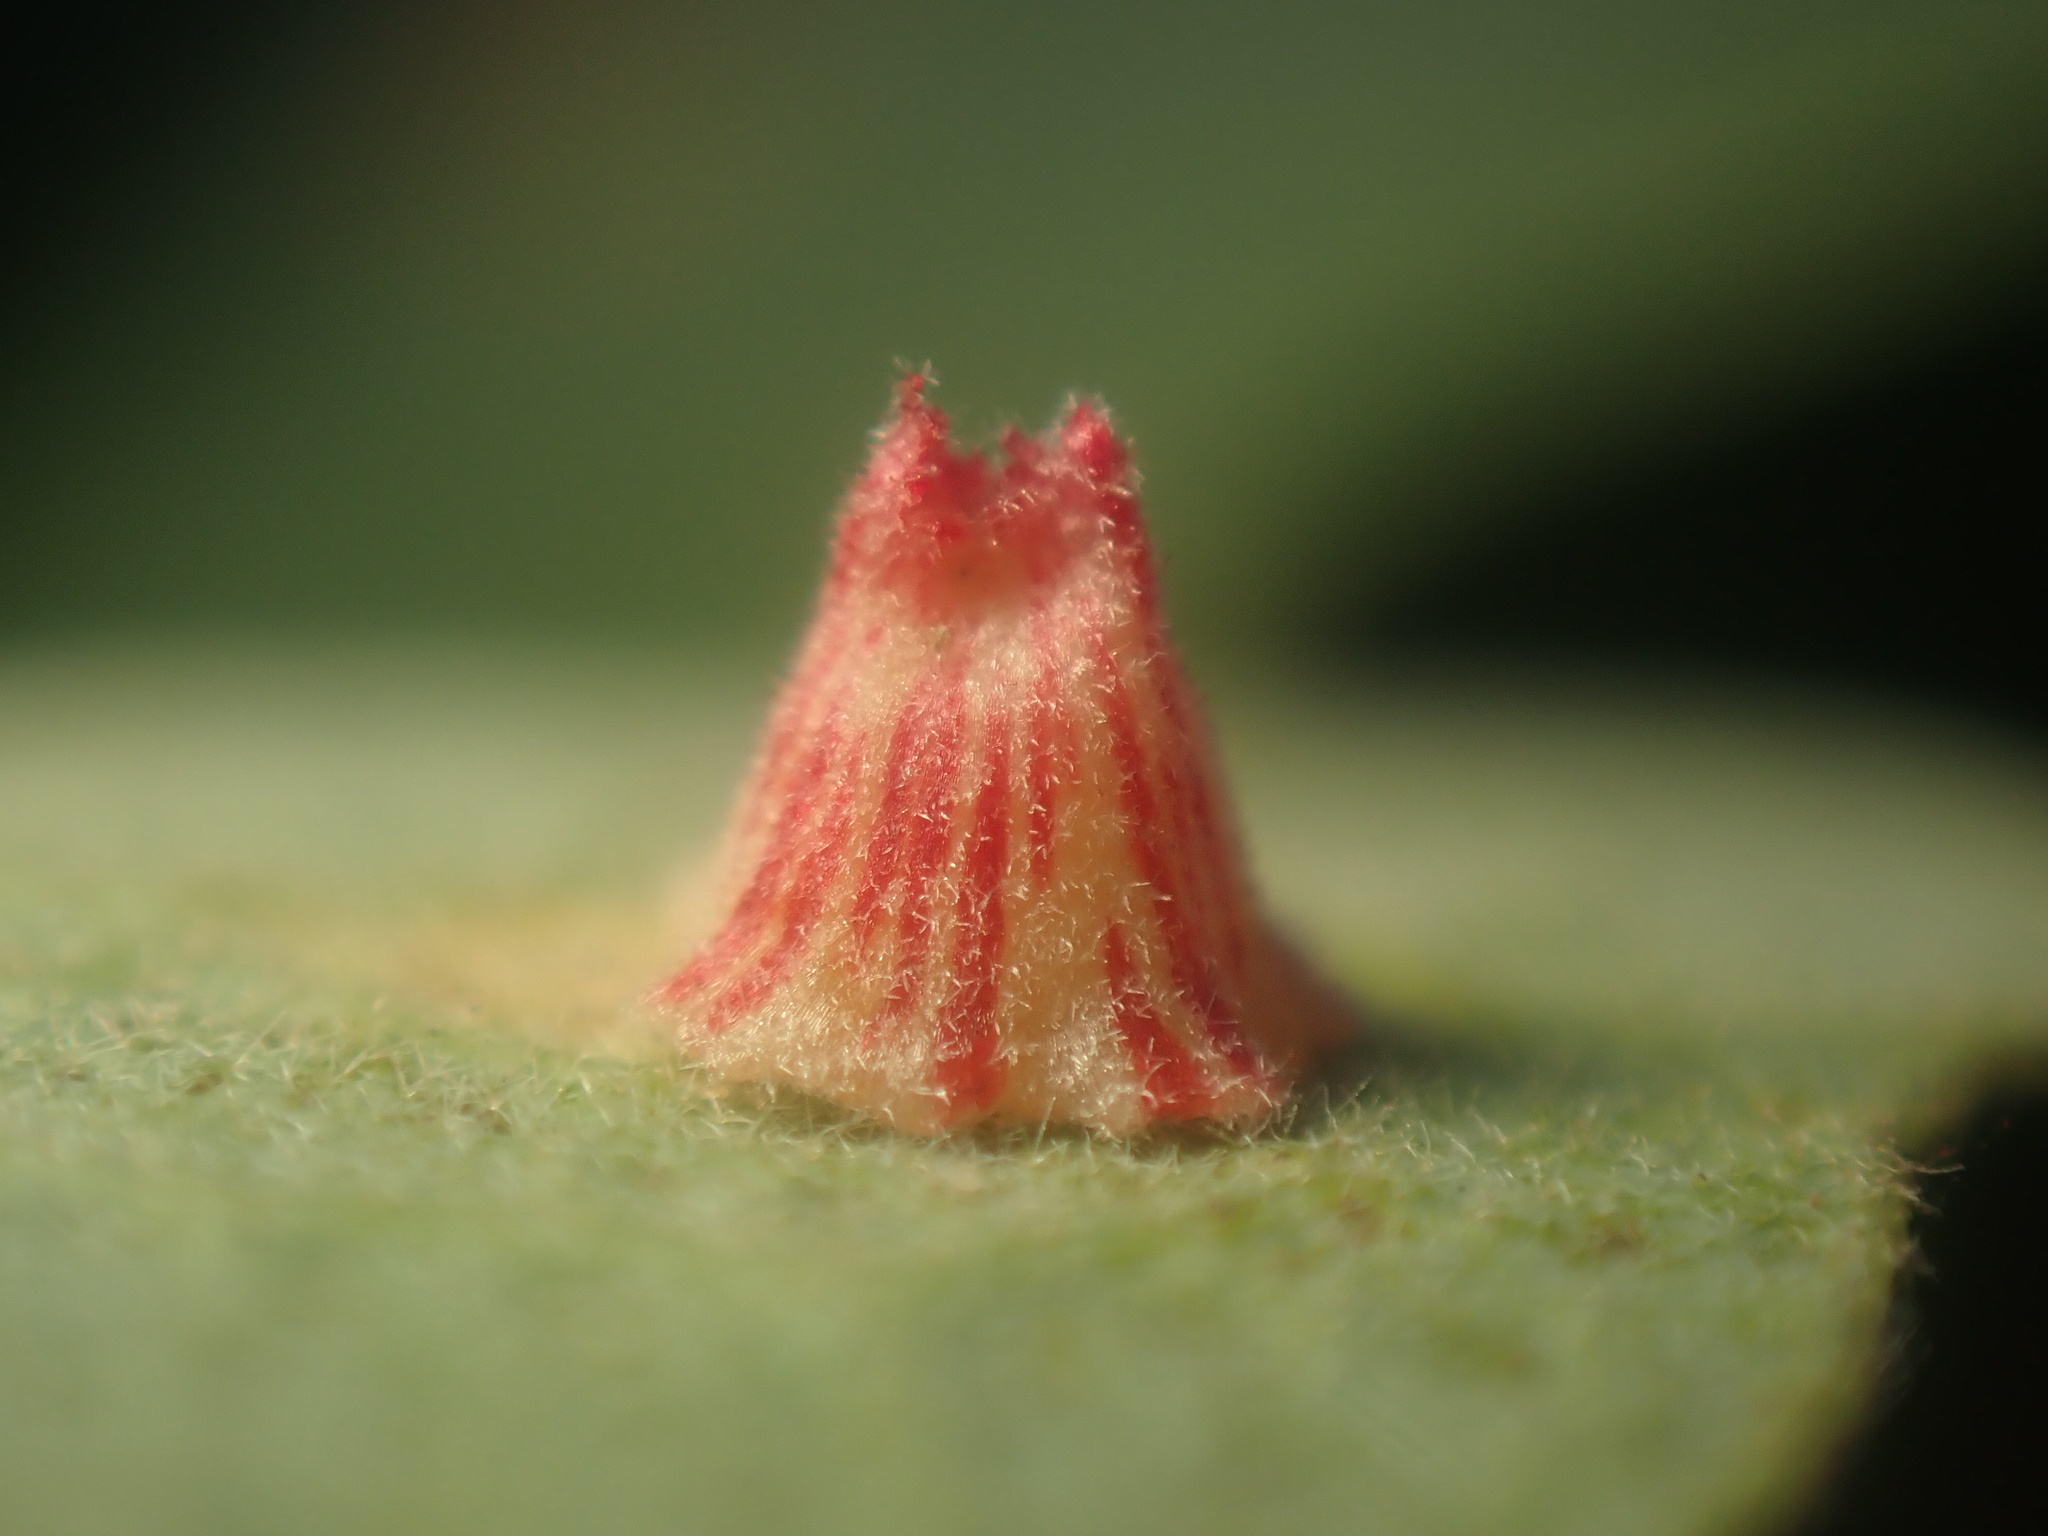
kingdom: Animalia
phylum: Arthropoda
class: Insecta
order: Hymenoptera
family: Cynipidae
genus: Andricus
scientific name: Andricus
